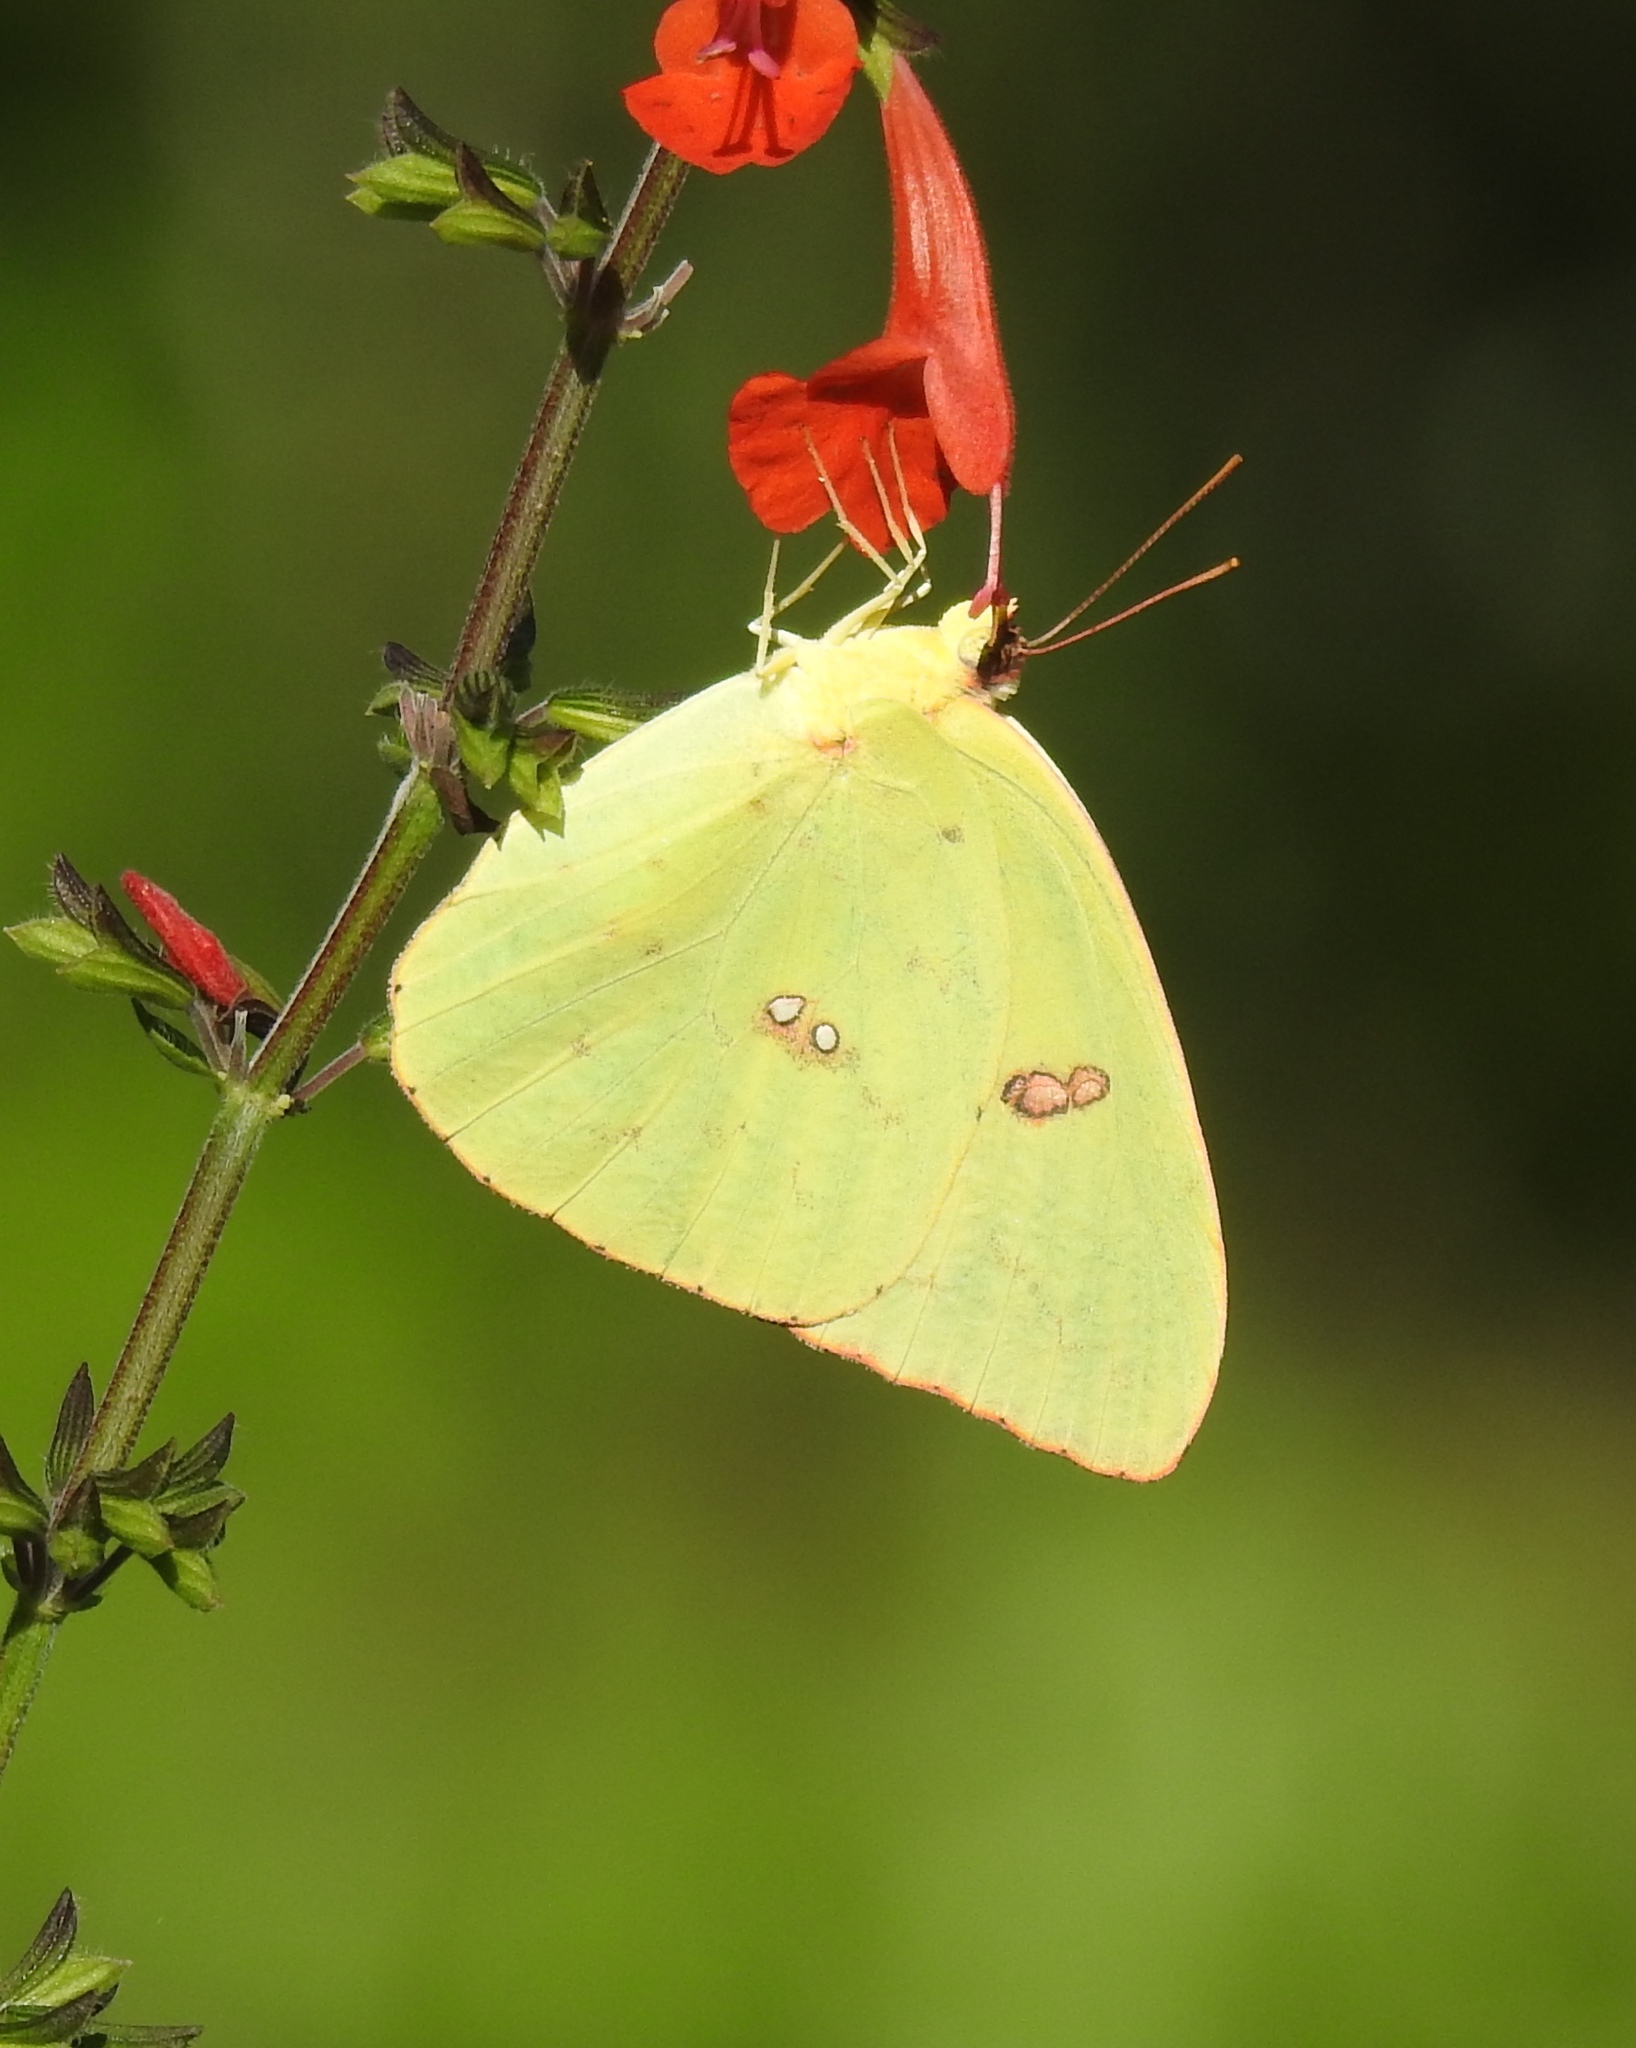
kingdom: Animalia
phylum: Arthropoda
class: Insecta
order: Lepidoptera
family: Pieridae
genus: Phoebis
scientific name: Phoebis sennae
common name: Cloudless sulphur
